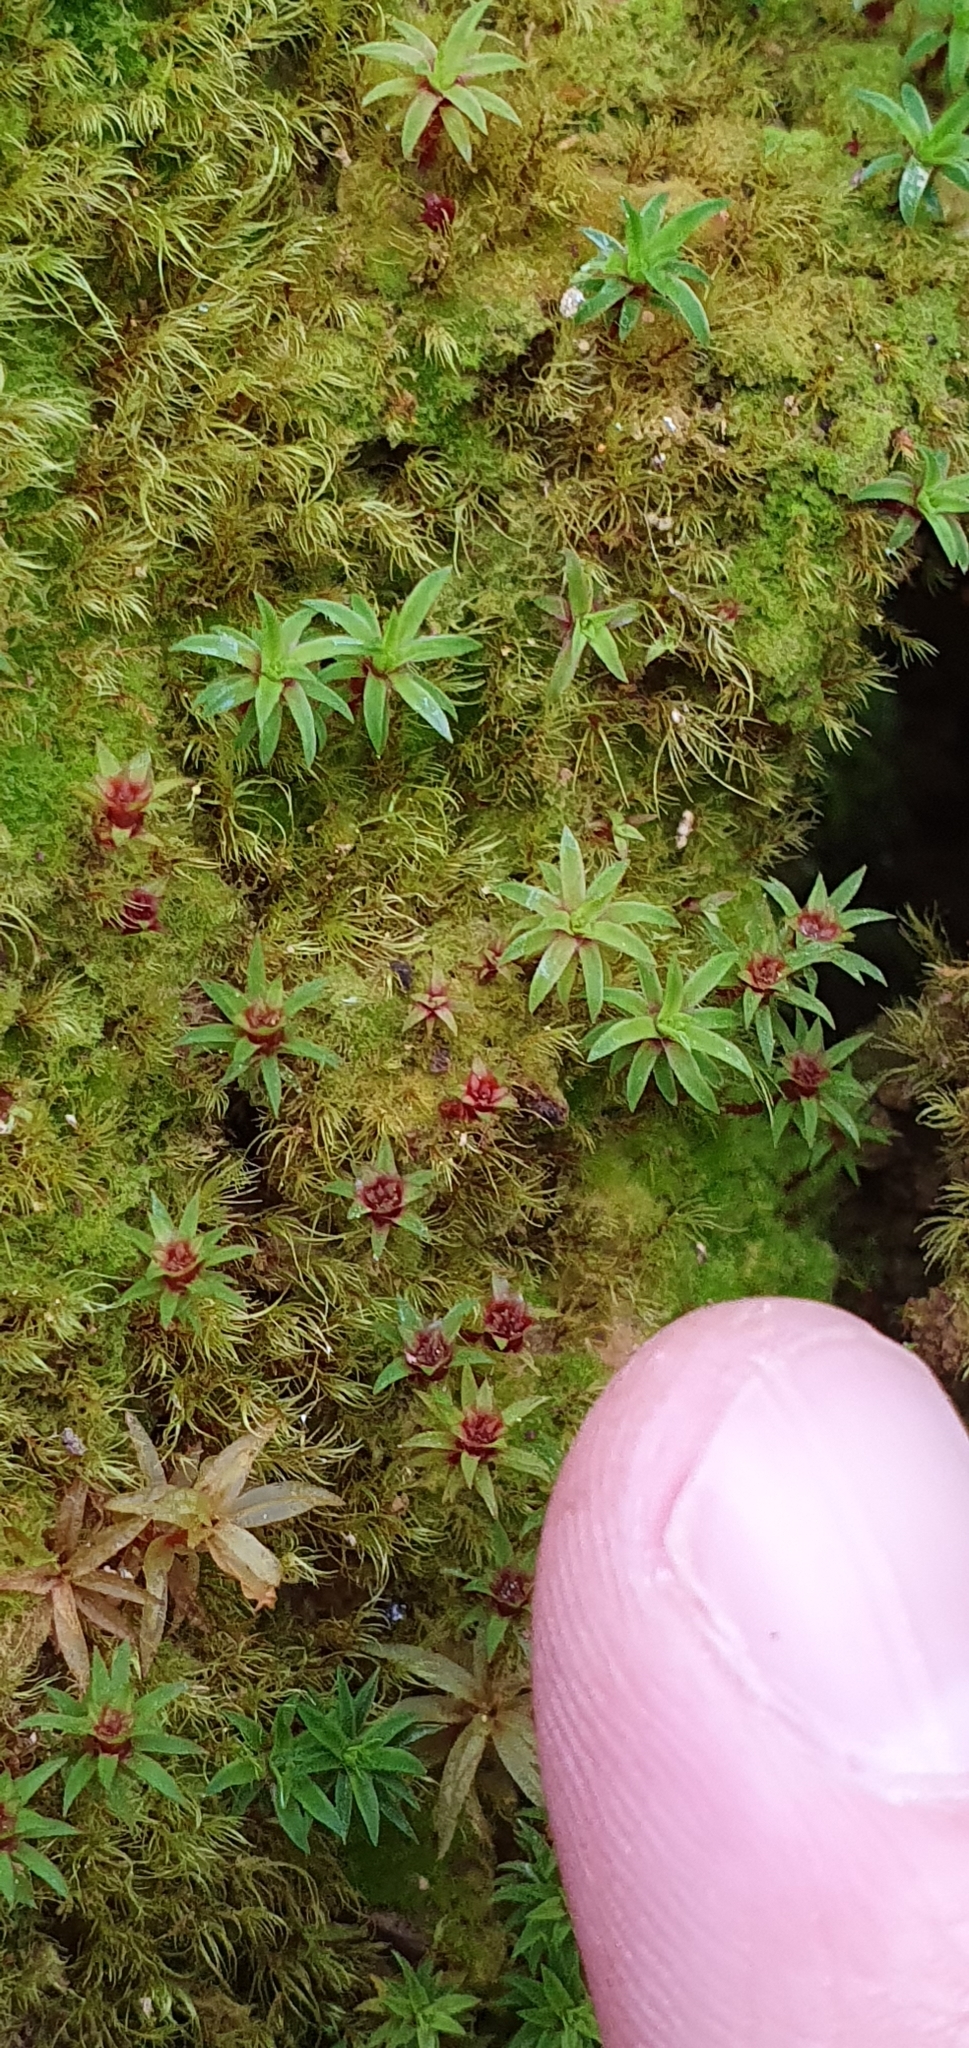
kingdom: Plantae
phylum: Bryophyta
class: Polytrichopsida
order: Polytrichales
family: Polytrichaceae
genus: Pogonatum
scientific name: Pogonatum aloides
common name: Aloe haircap
